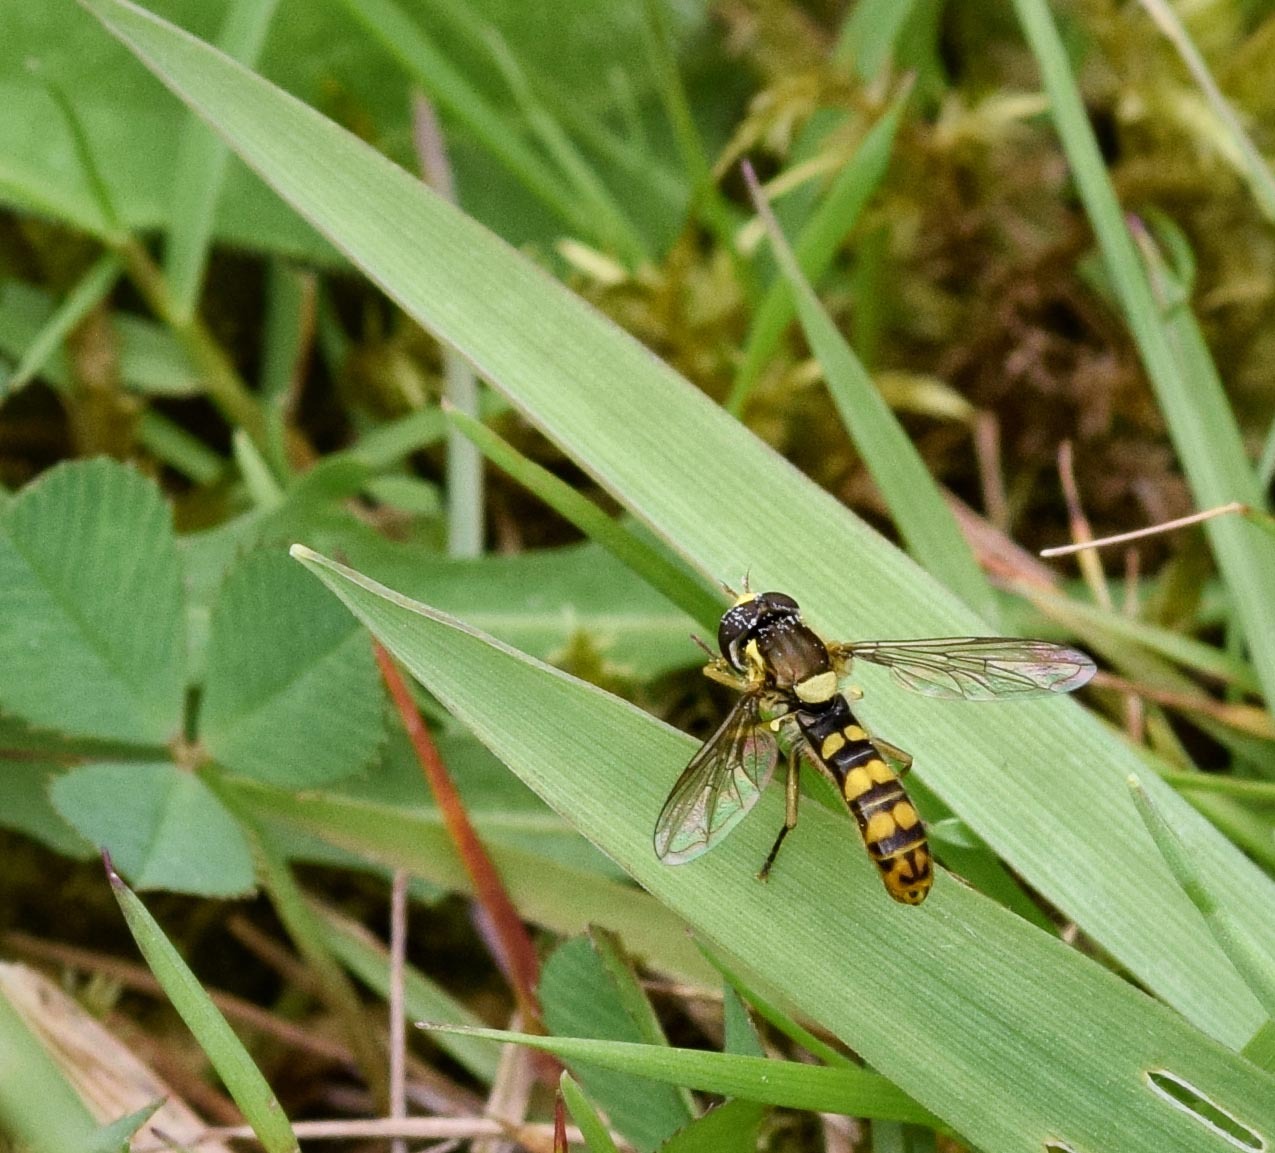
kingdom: Animalia
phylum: Arthropoda
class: Insecta
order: Diptera
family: Syrphidae
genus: Sphaerophoria
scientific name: Sphaerophoria
